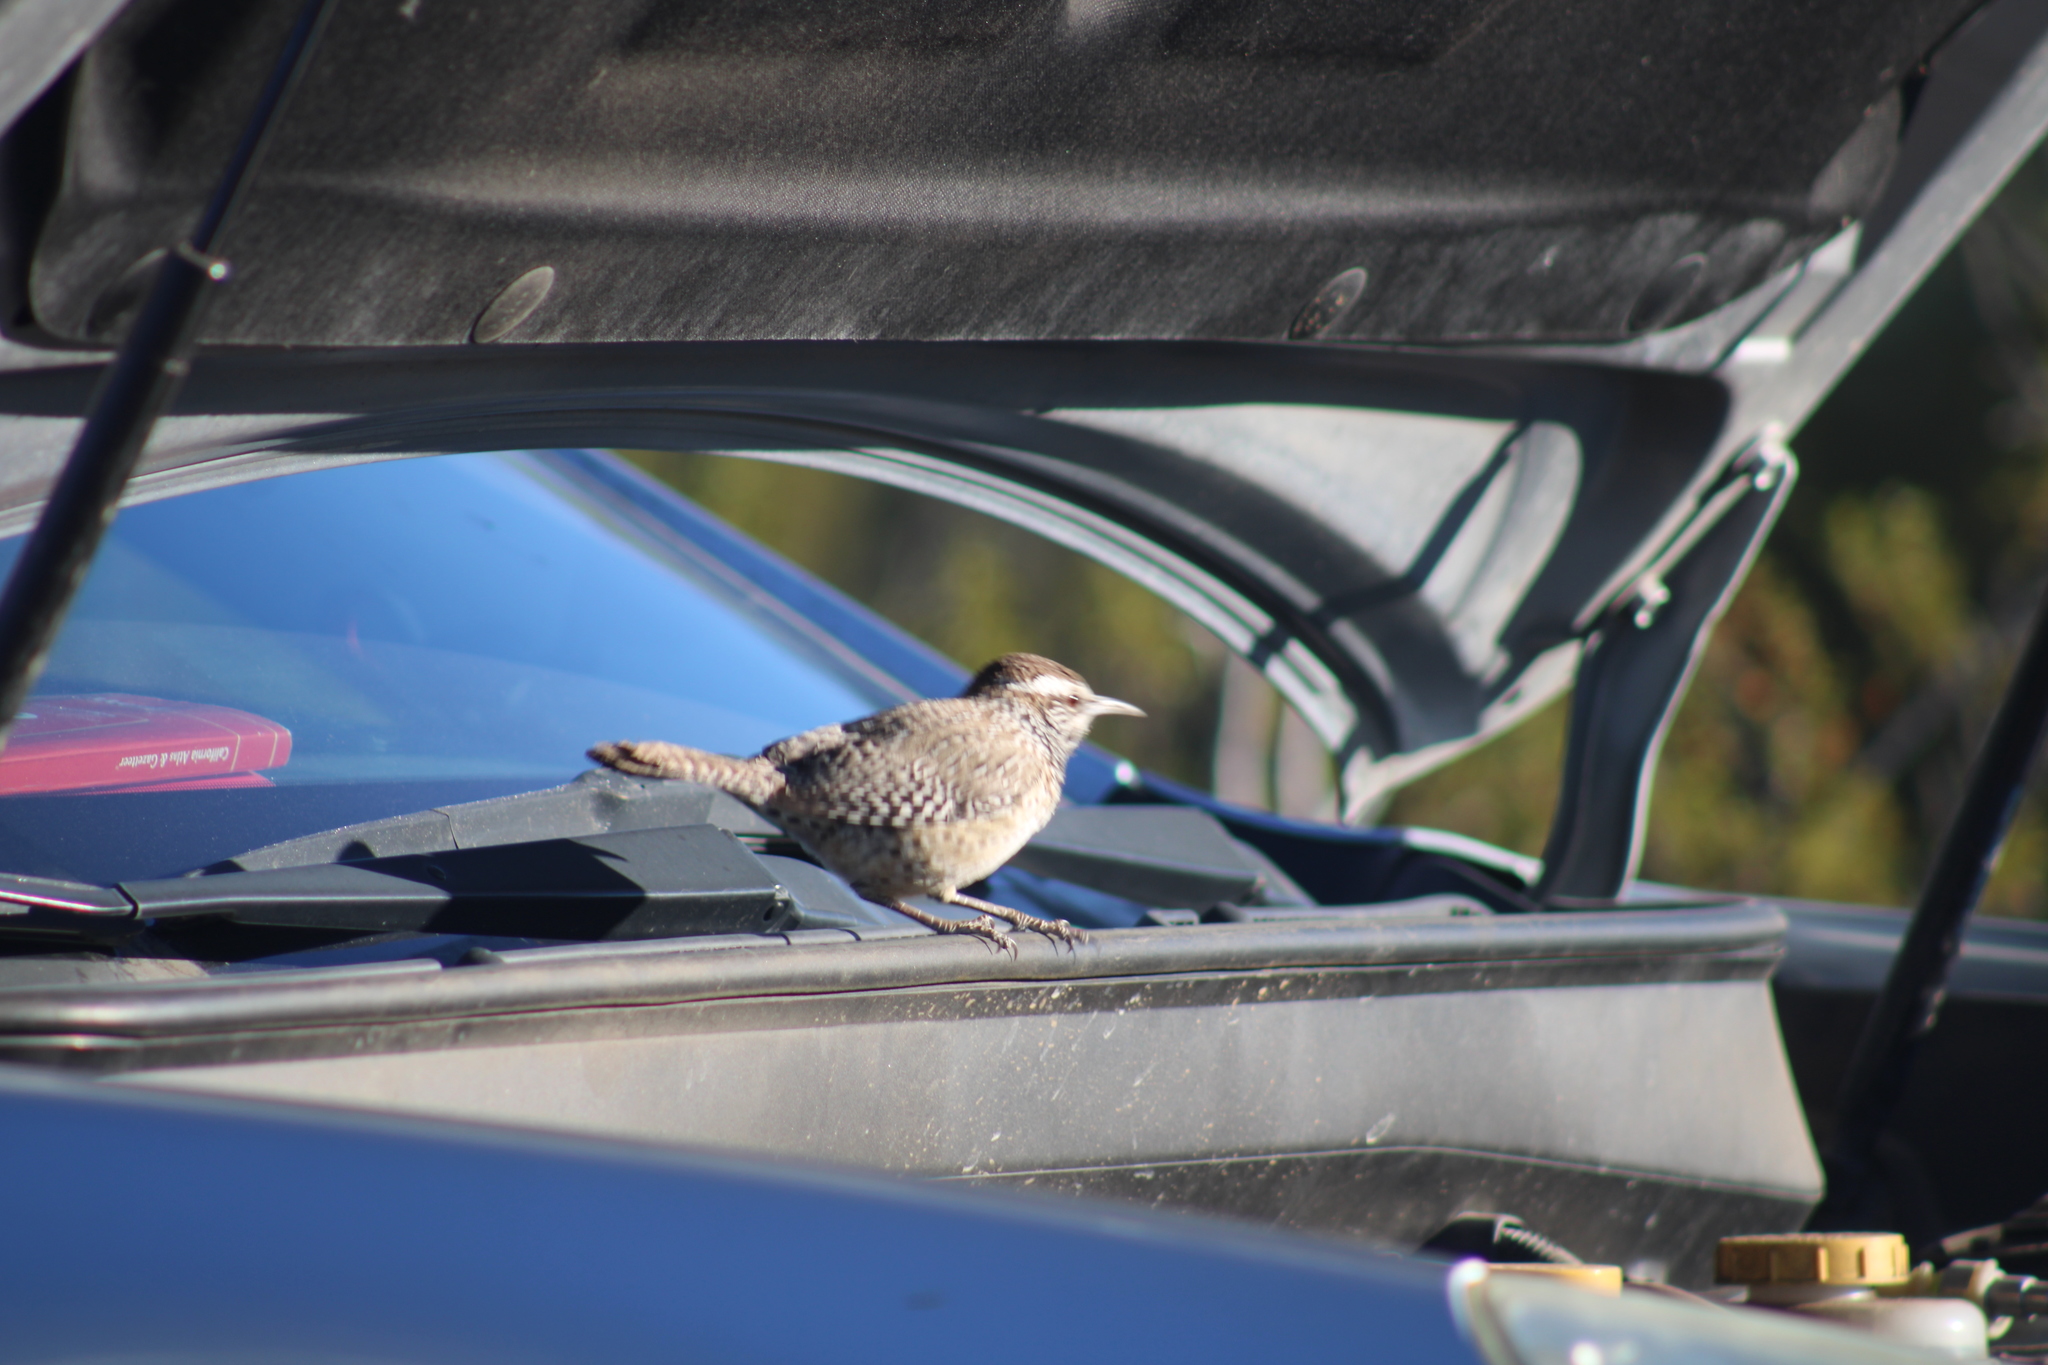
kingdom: Animalia
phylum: Chordata
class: Aves
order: Passeriformes
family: Troglodytidae
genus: Campylorhynchus
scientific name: Campylorhynchus brunneicapillus
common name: Cactus wren
